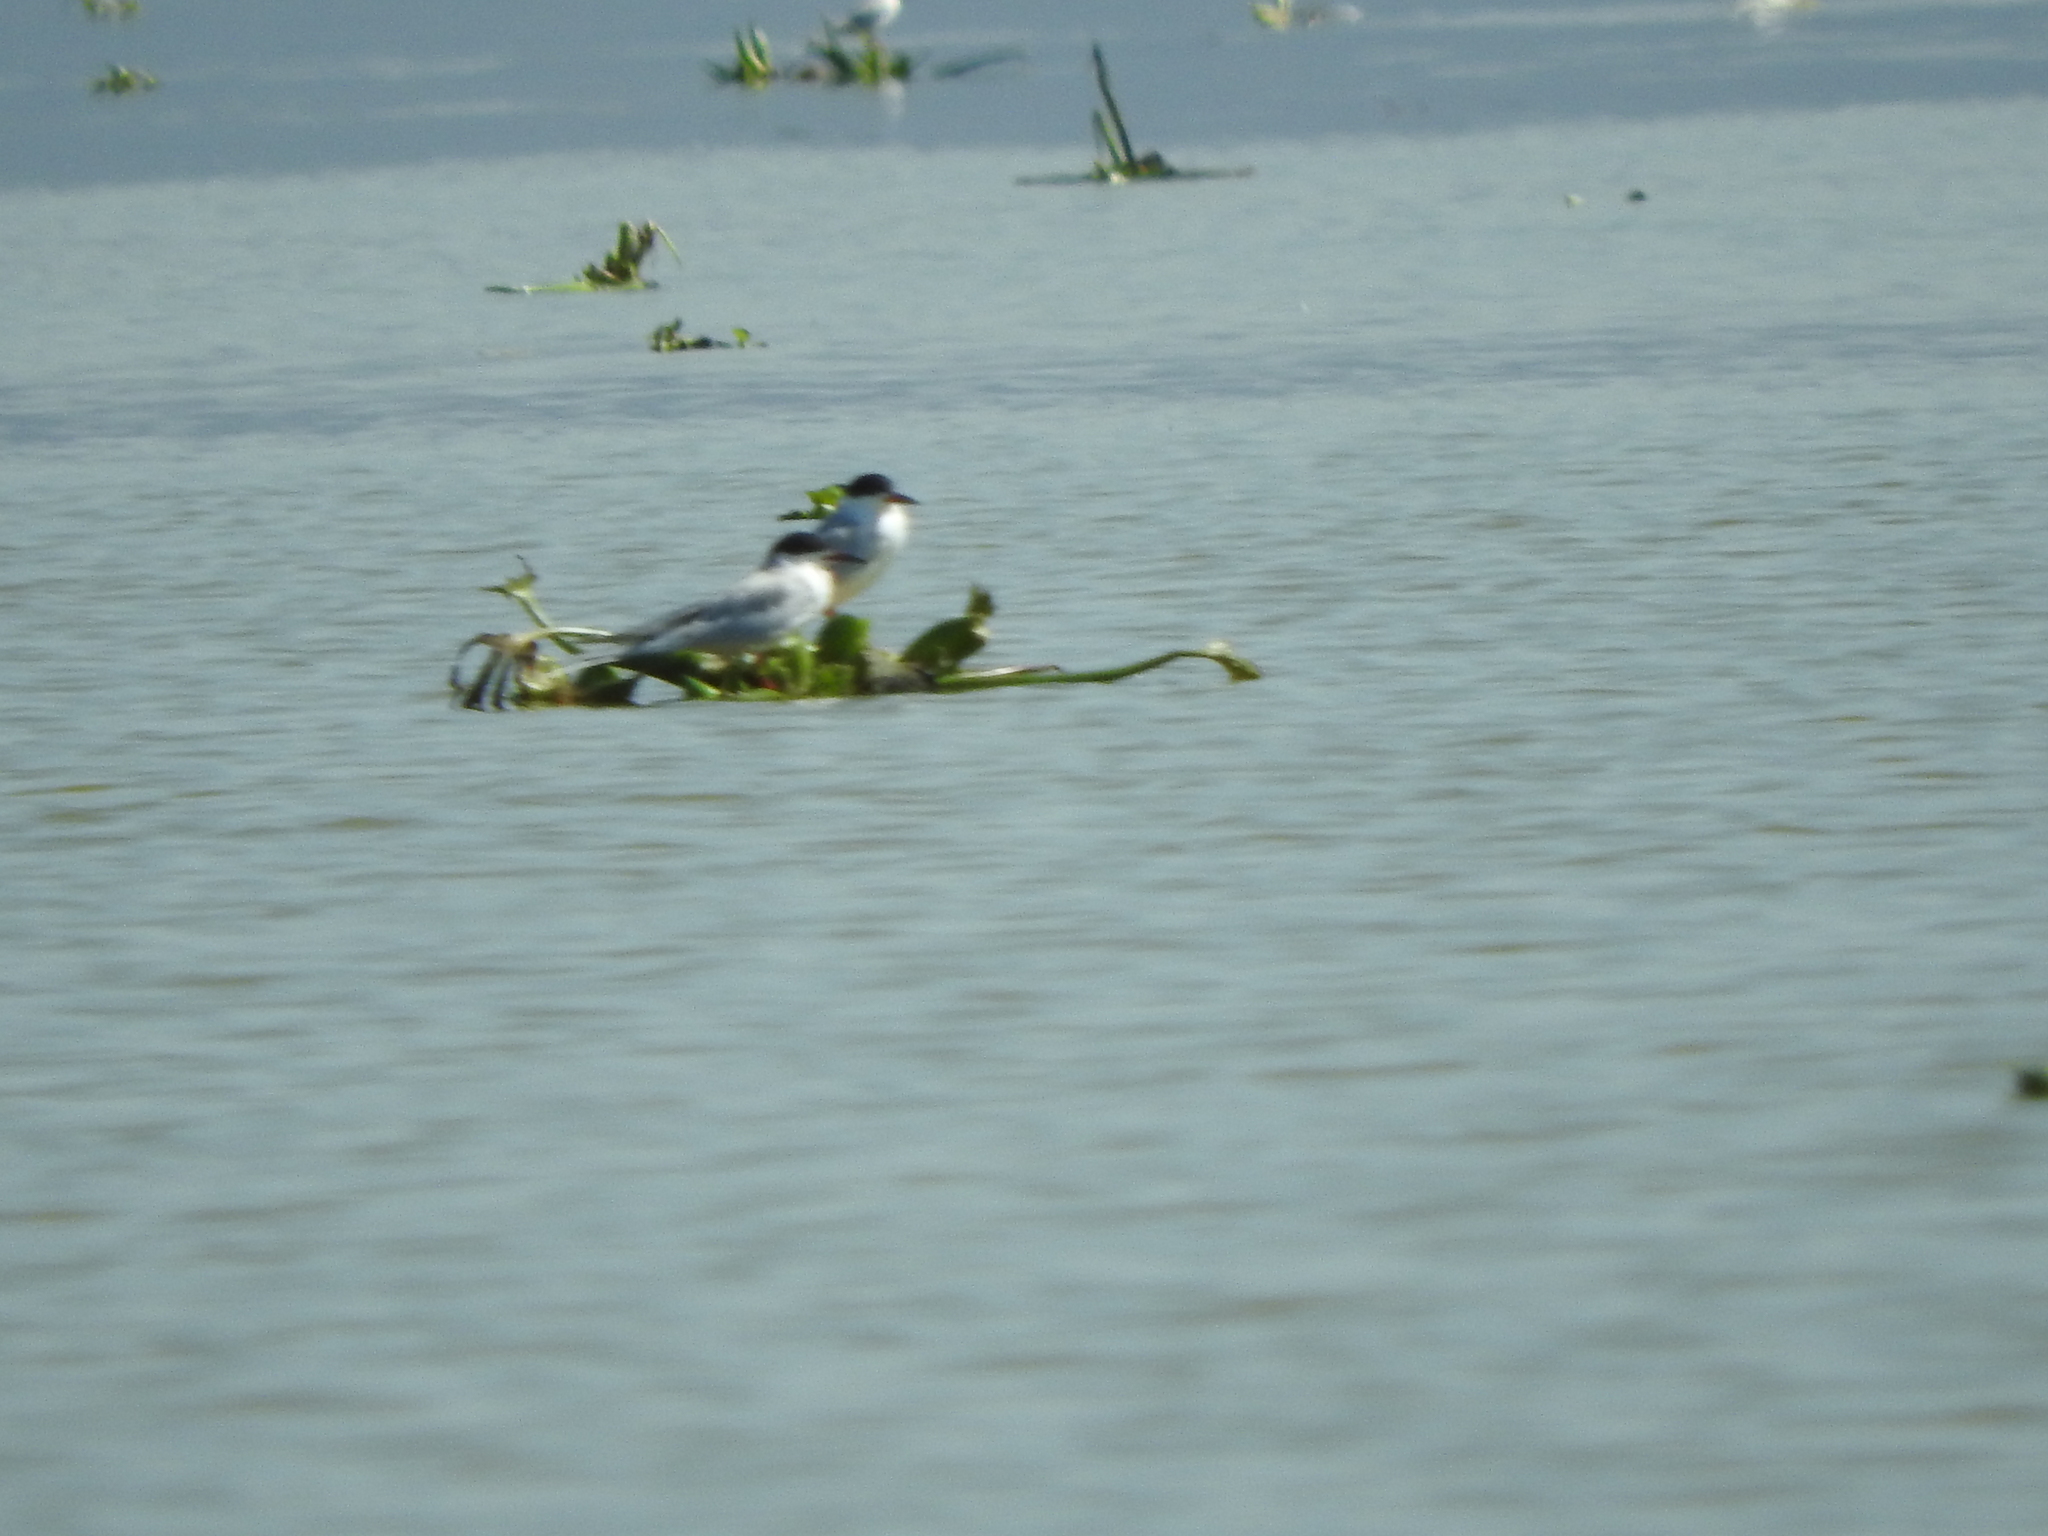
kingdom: Animalia
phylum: Chordata
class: Aves
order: Charadriiformes
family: Laridae
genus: Sterna
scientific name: Sterna forsteri
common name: Forster's tern
